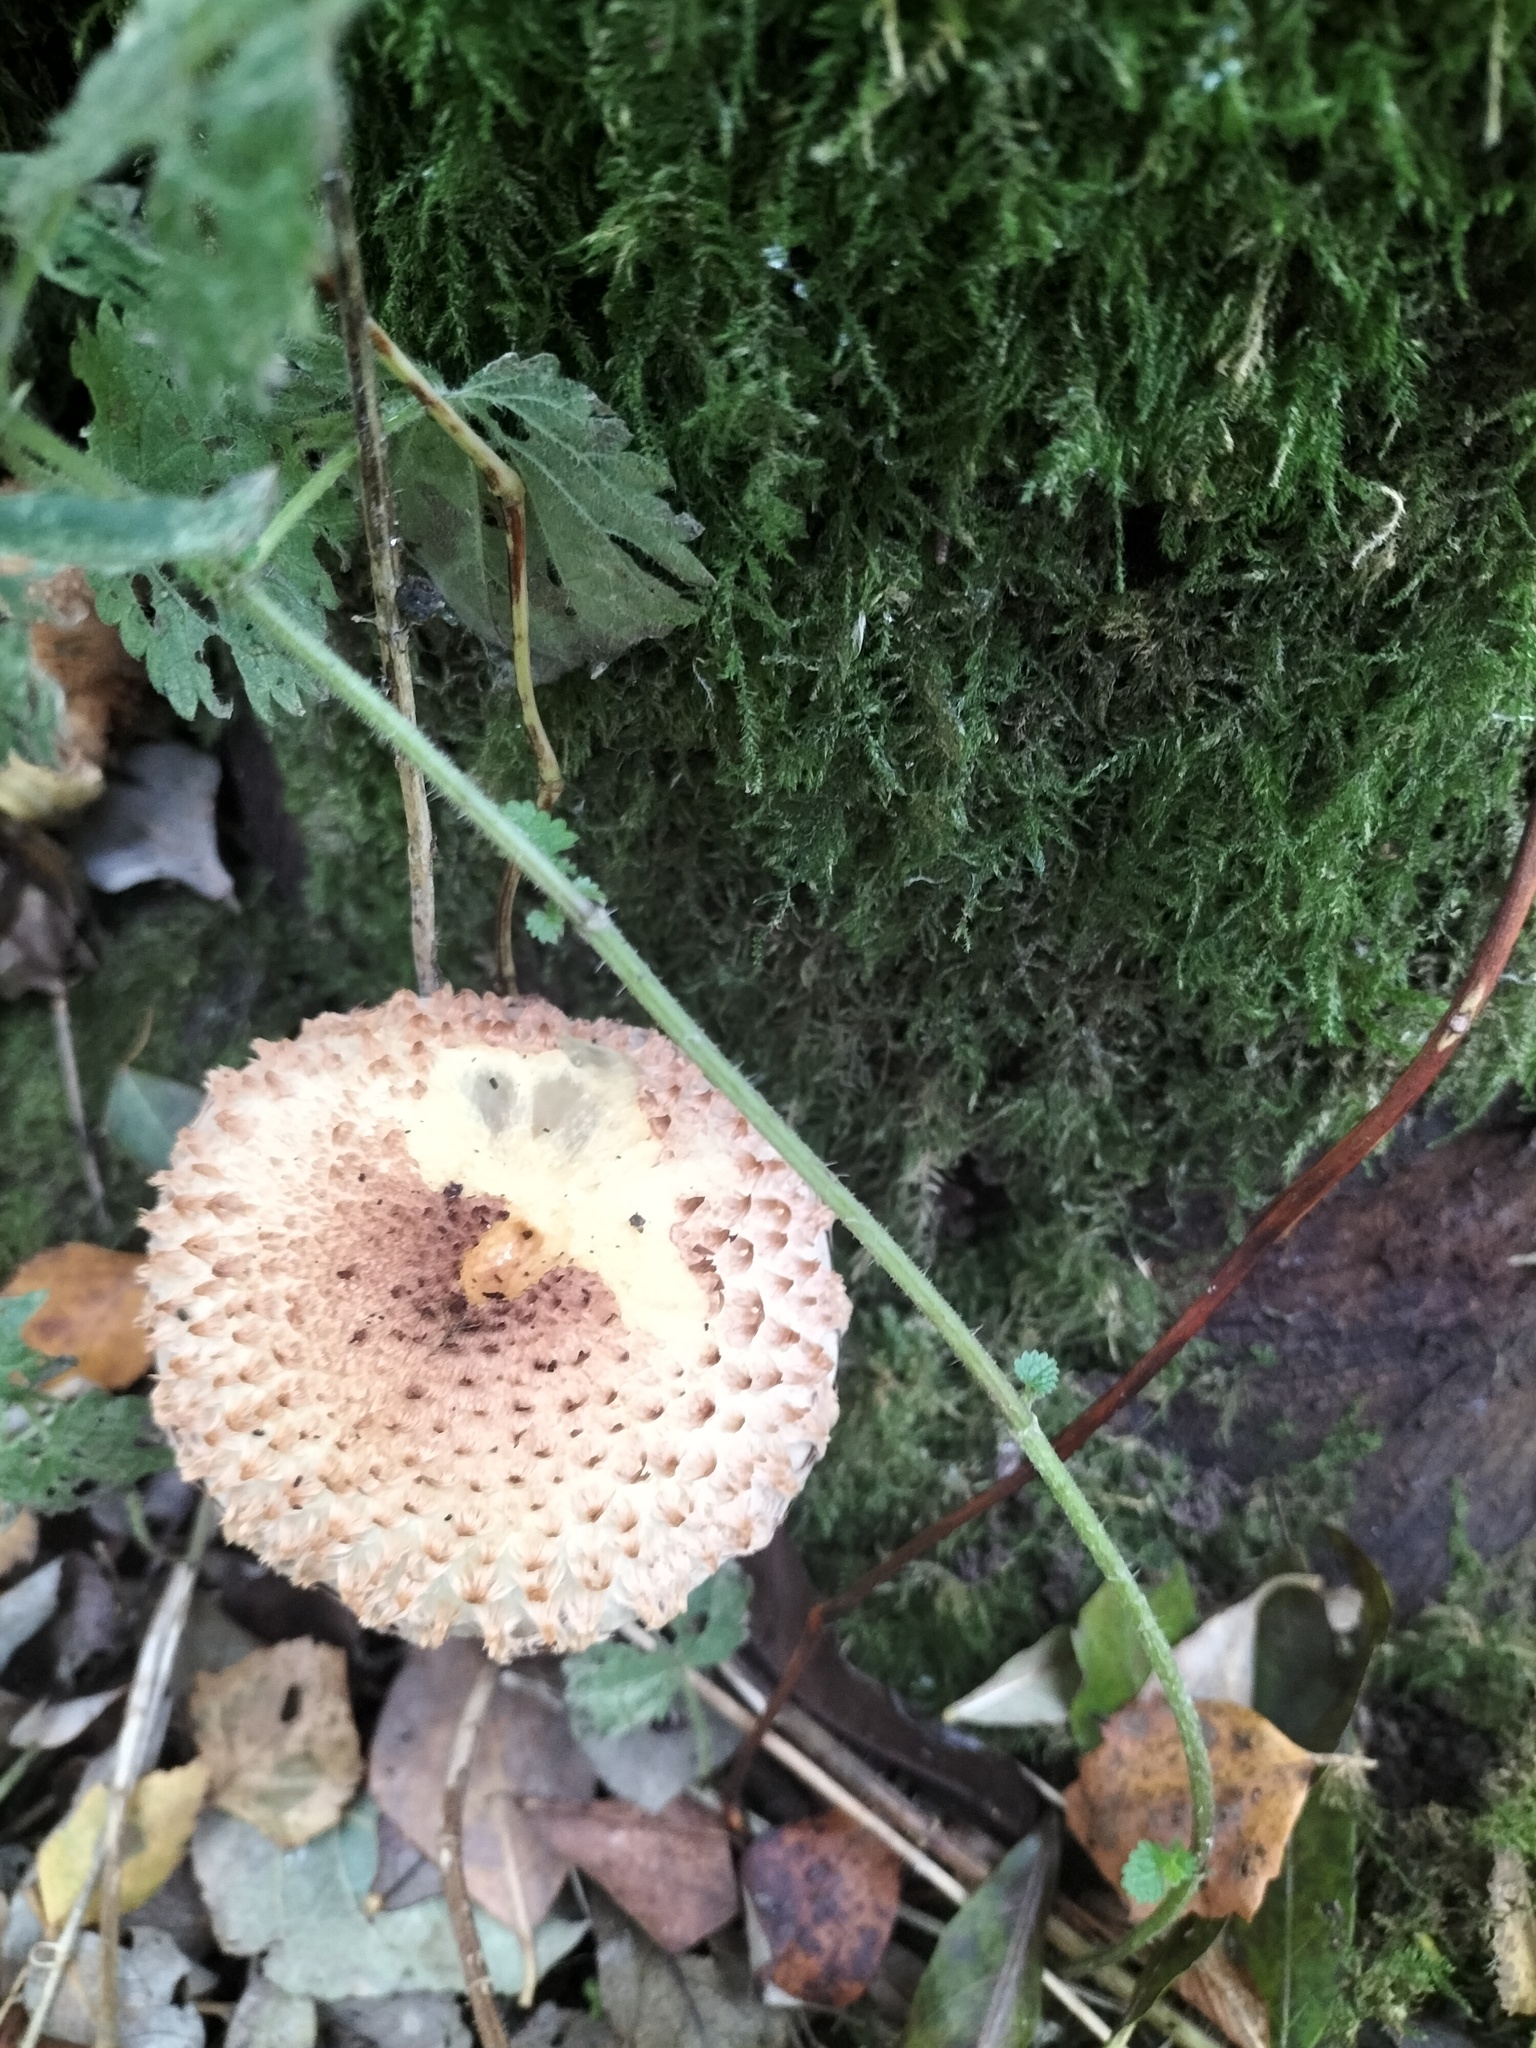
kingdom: Fungi
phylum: Basidiomycota
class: Agaricomycetes
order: Agaricales
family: Strophariaceae
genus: Pholiota
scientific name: Pholiota squarrosa
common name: Shaggy pholiota
